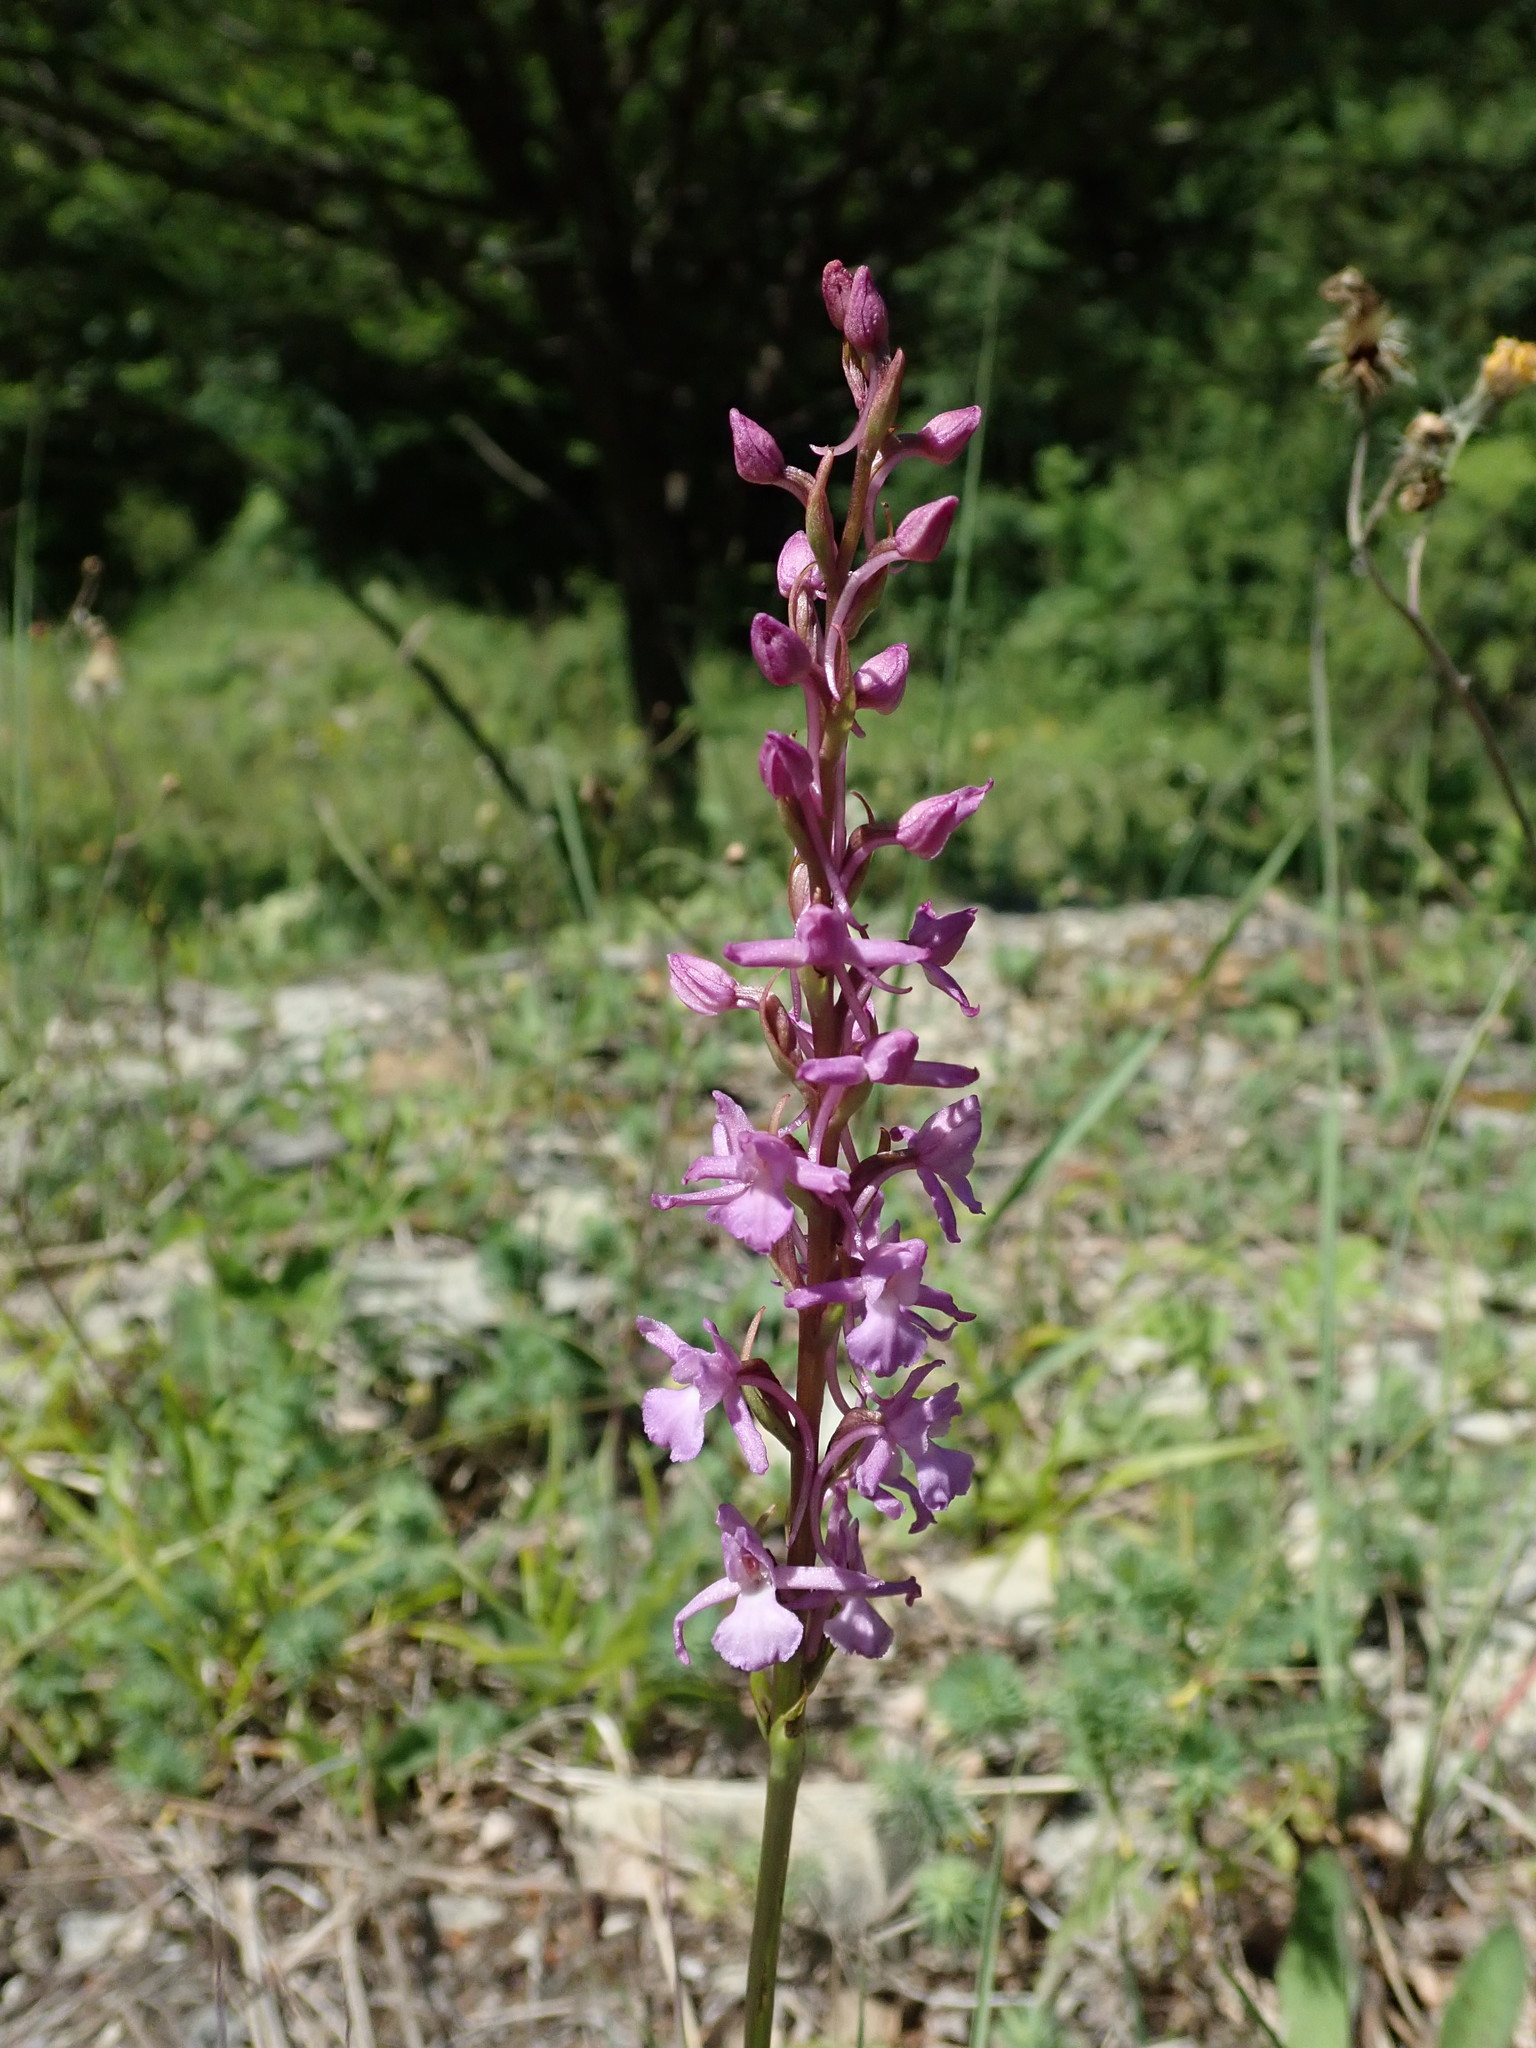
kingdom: Plantae
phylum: Tracheophyta
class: Liliopsida
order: Asparagales
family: Orchidaceae
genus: Gymnadenia
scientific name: Gymnadenia conopsea
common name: Fragrant orchid
